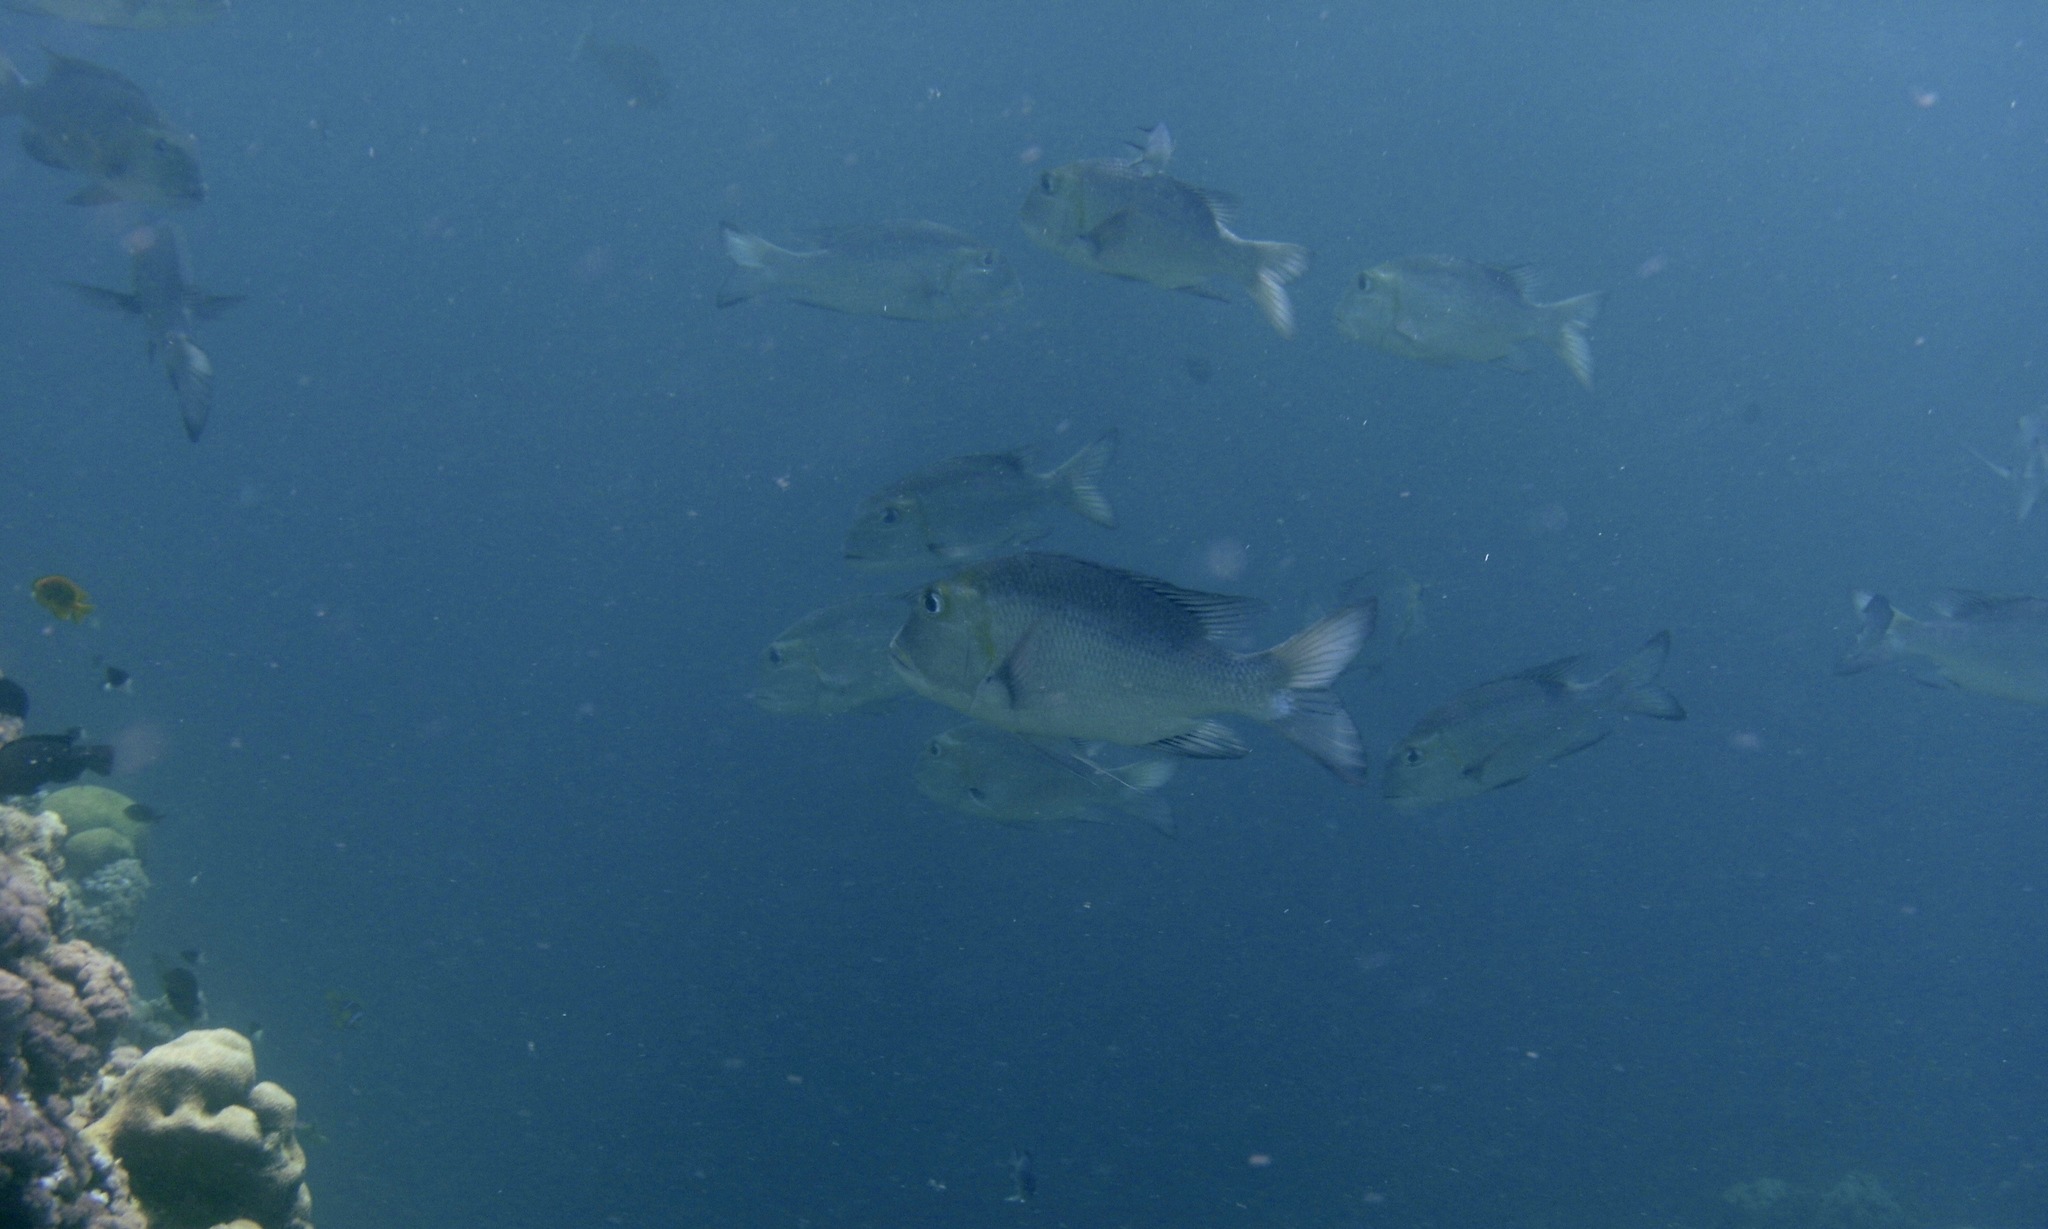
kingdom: Animalia
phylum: Chordata
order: Perciformes
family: Lethrinidae
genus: Monotaxis
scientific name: Monotaxis grandoculis
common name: Bigeye emperor
